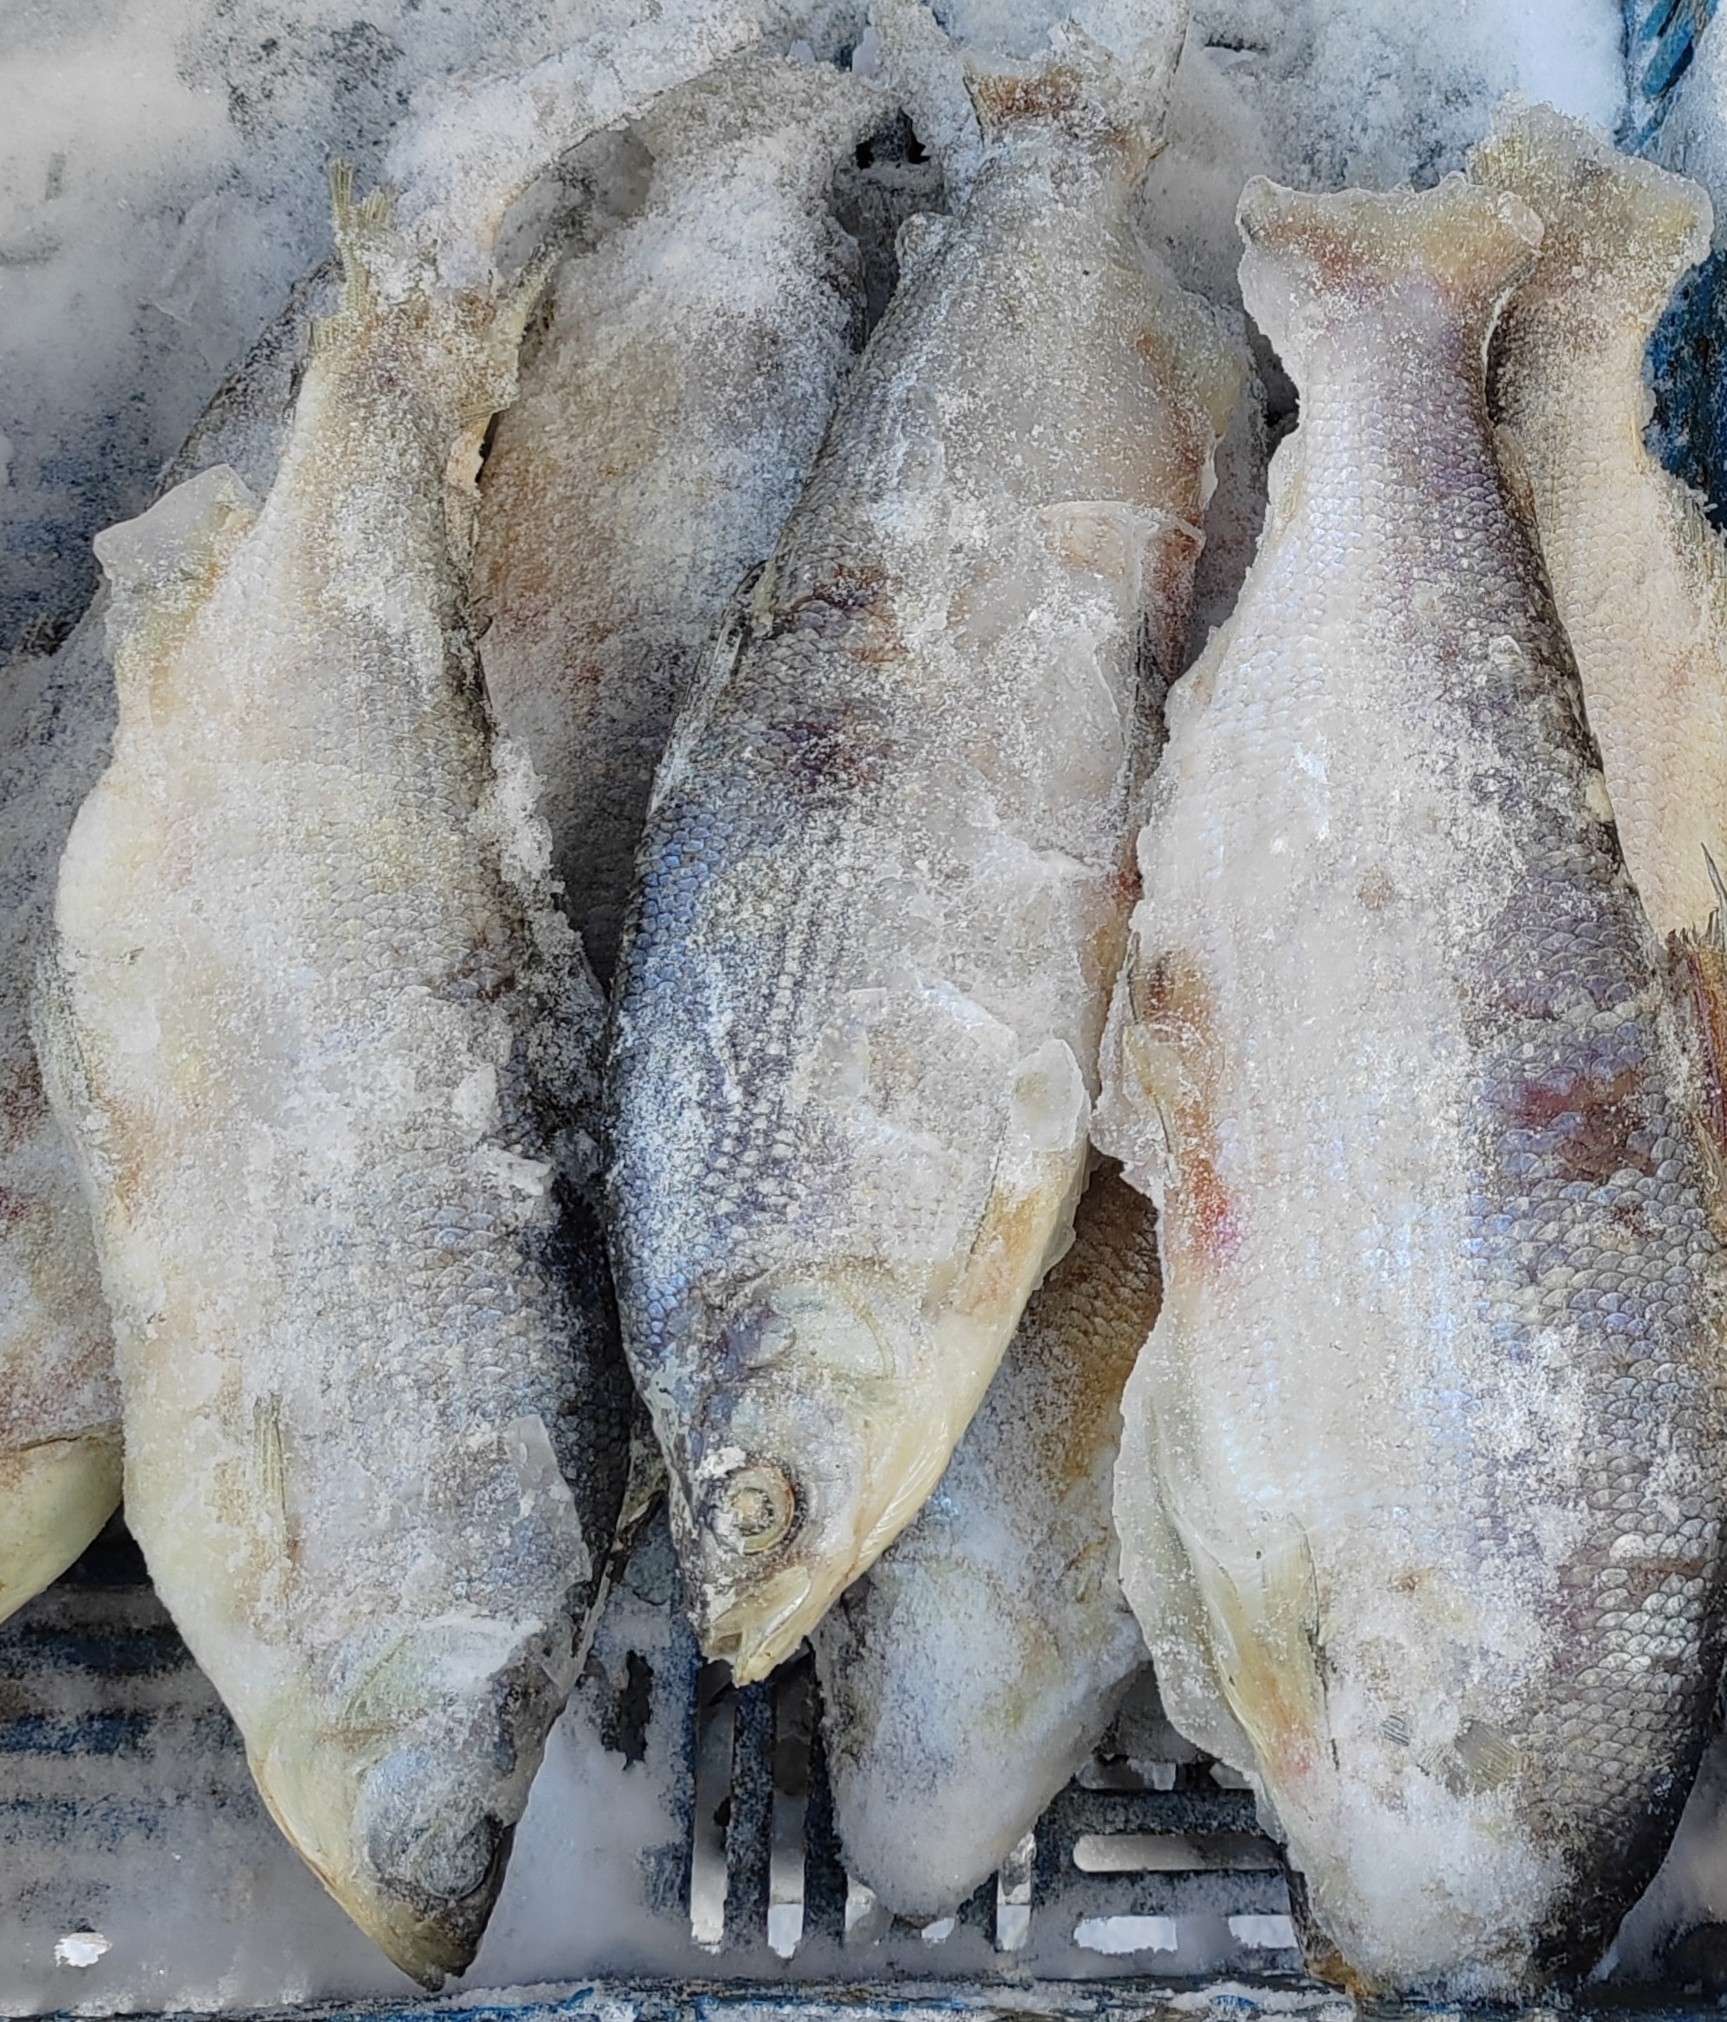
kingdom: Animalia
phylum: Chordata
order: Salmoniformes
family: Salmonidae
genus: Coregonus
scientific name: Coregonus peled
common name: Northern whitefish
